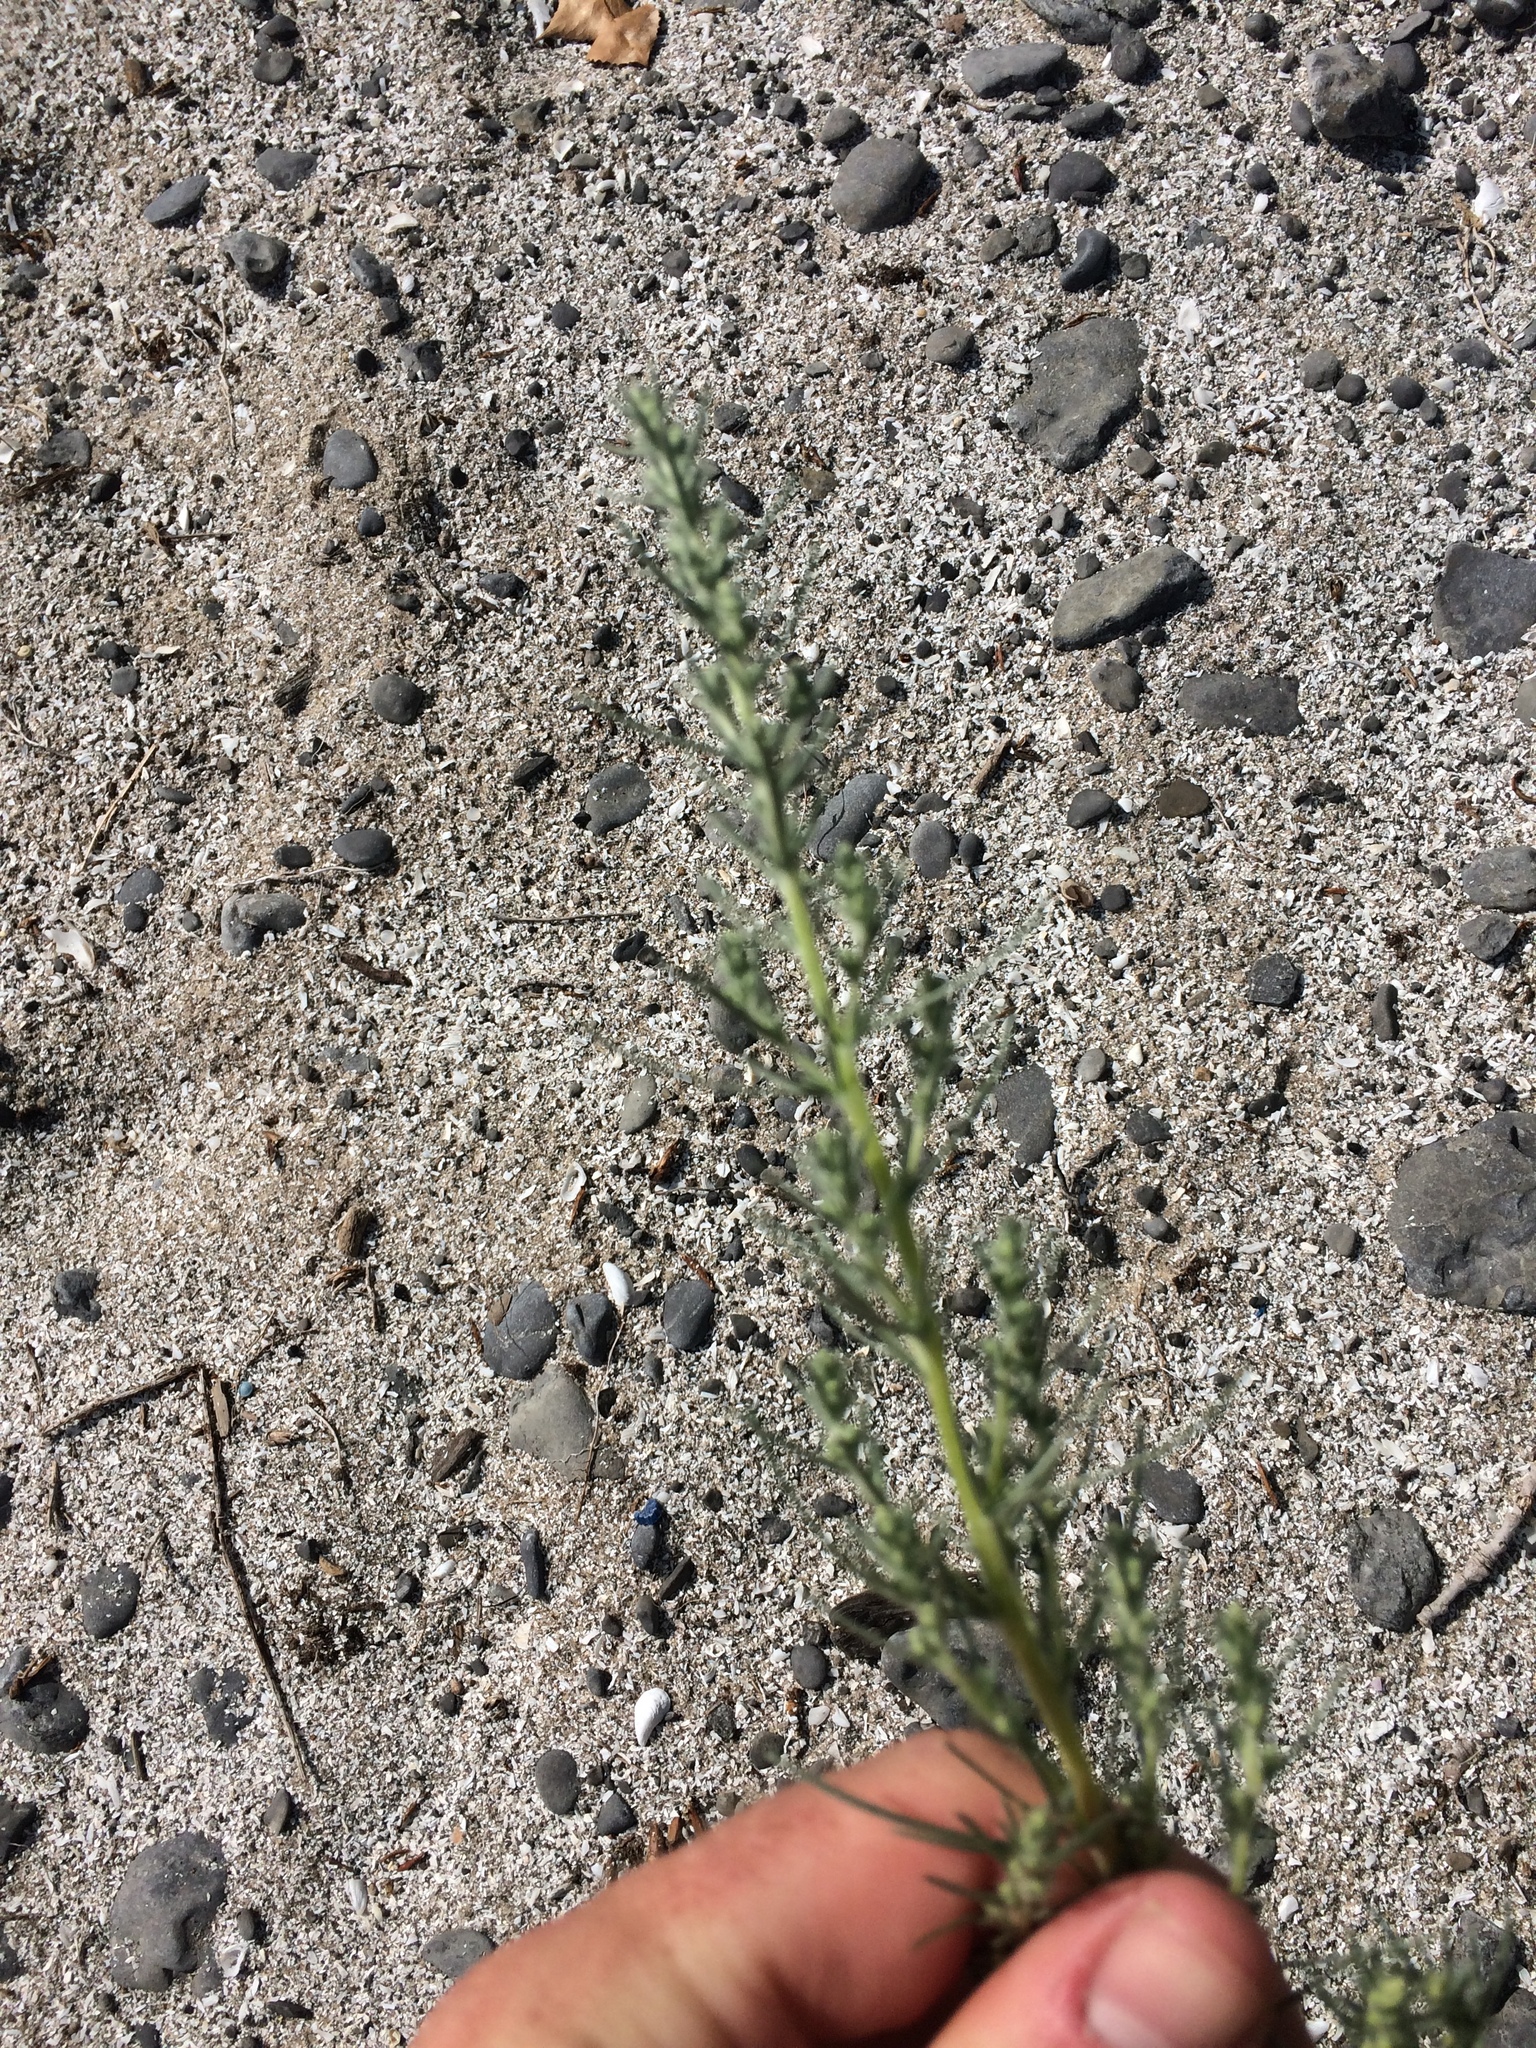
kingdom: Plantae
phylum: Tracheophyta
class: Magnoliopsida
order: Asterales
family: Asteraceae
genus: Artemisia
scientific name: Artemisia campestris
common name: Field wormwood
